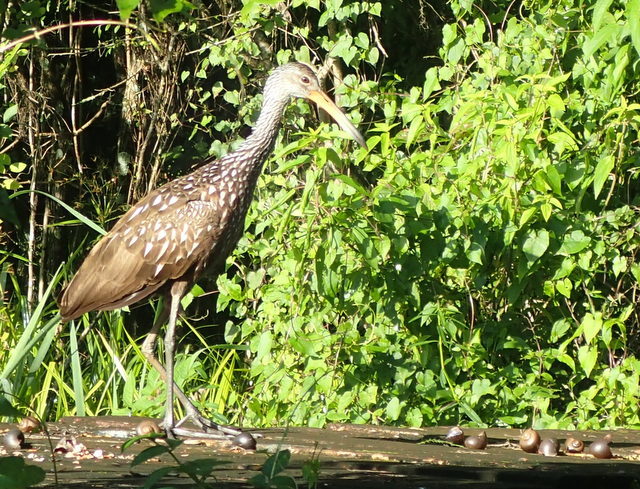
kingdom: Animalia
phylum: Chordata
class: Aves
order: Gruiformes
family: Aramidae
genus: Aramus
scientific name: Aramus guarauna
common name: Limpkin
